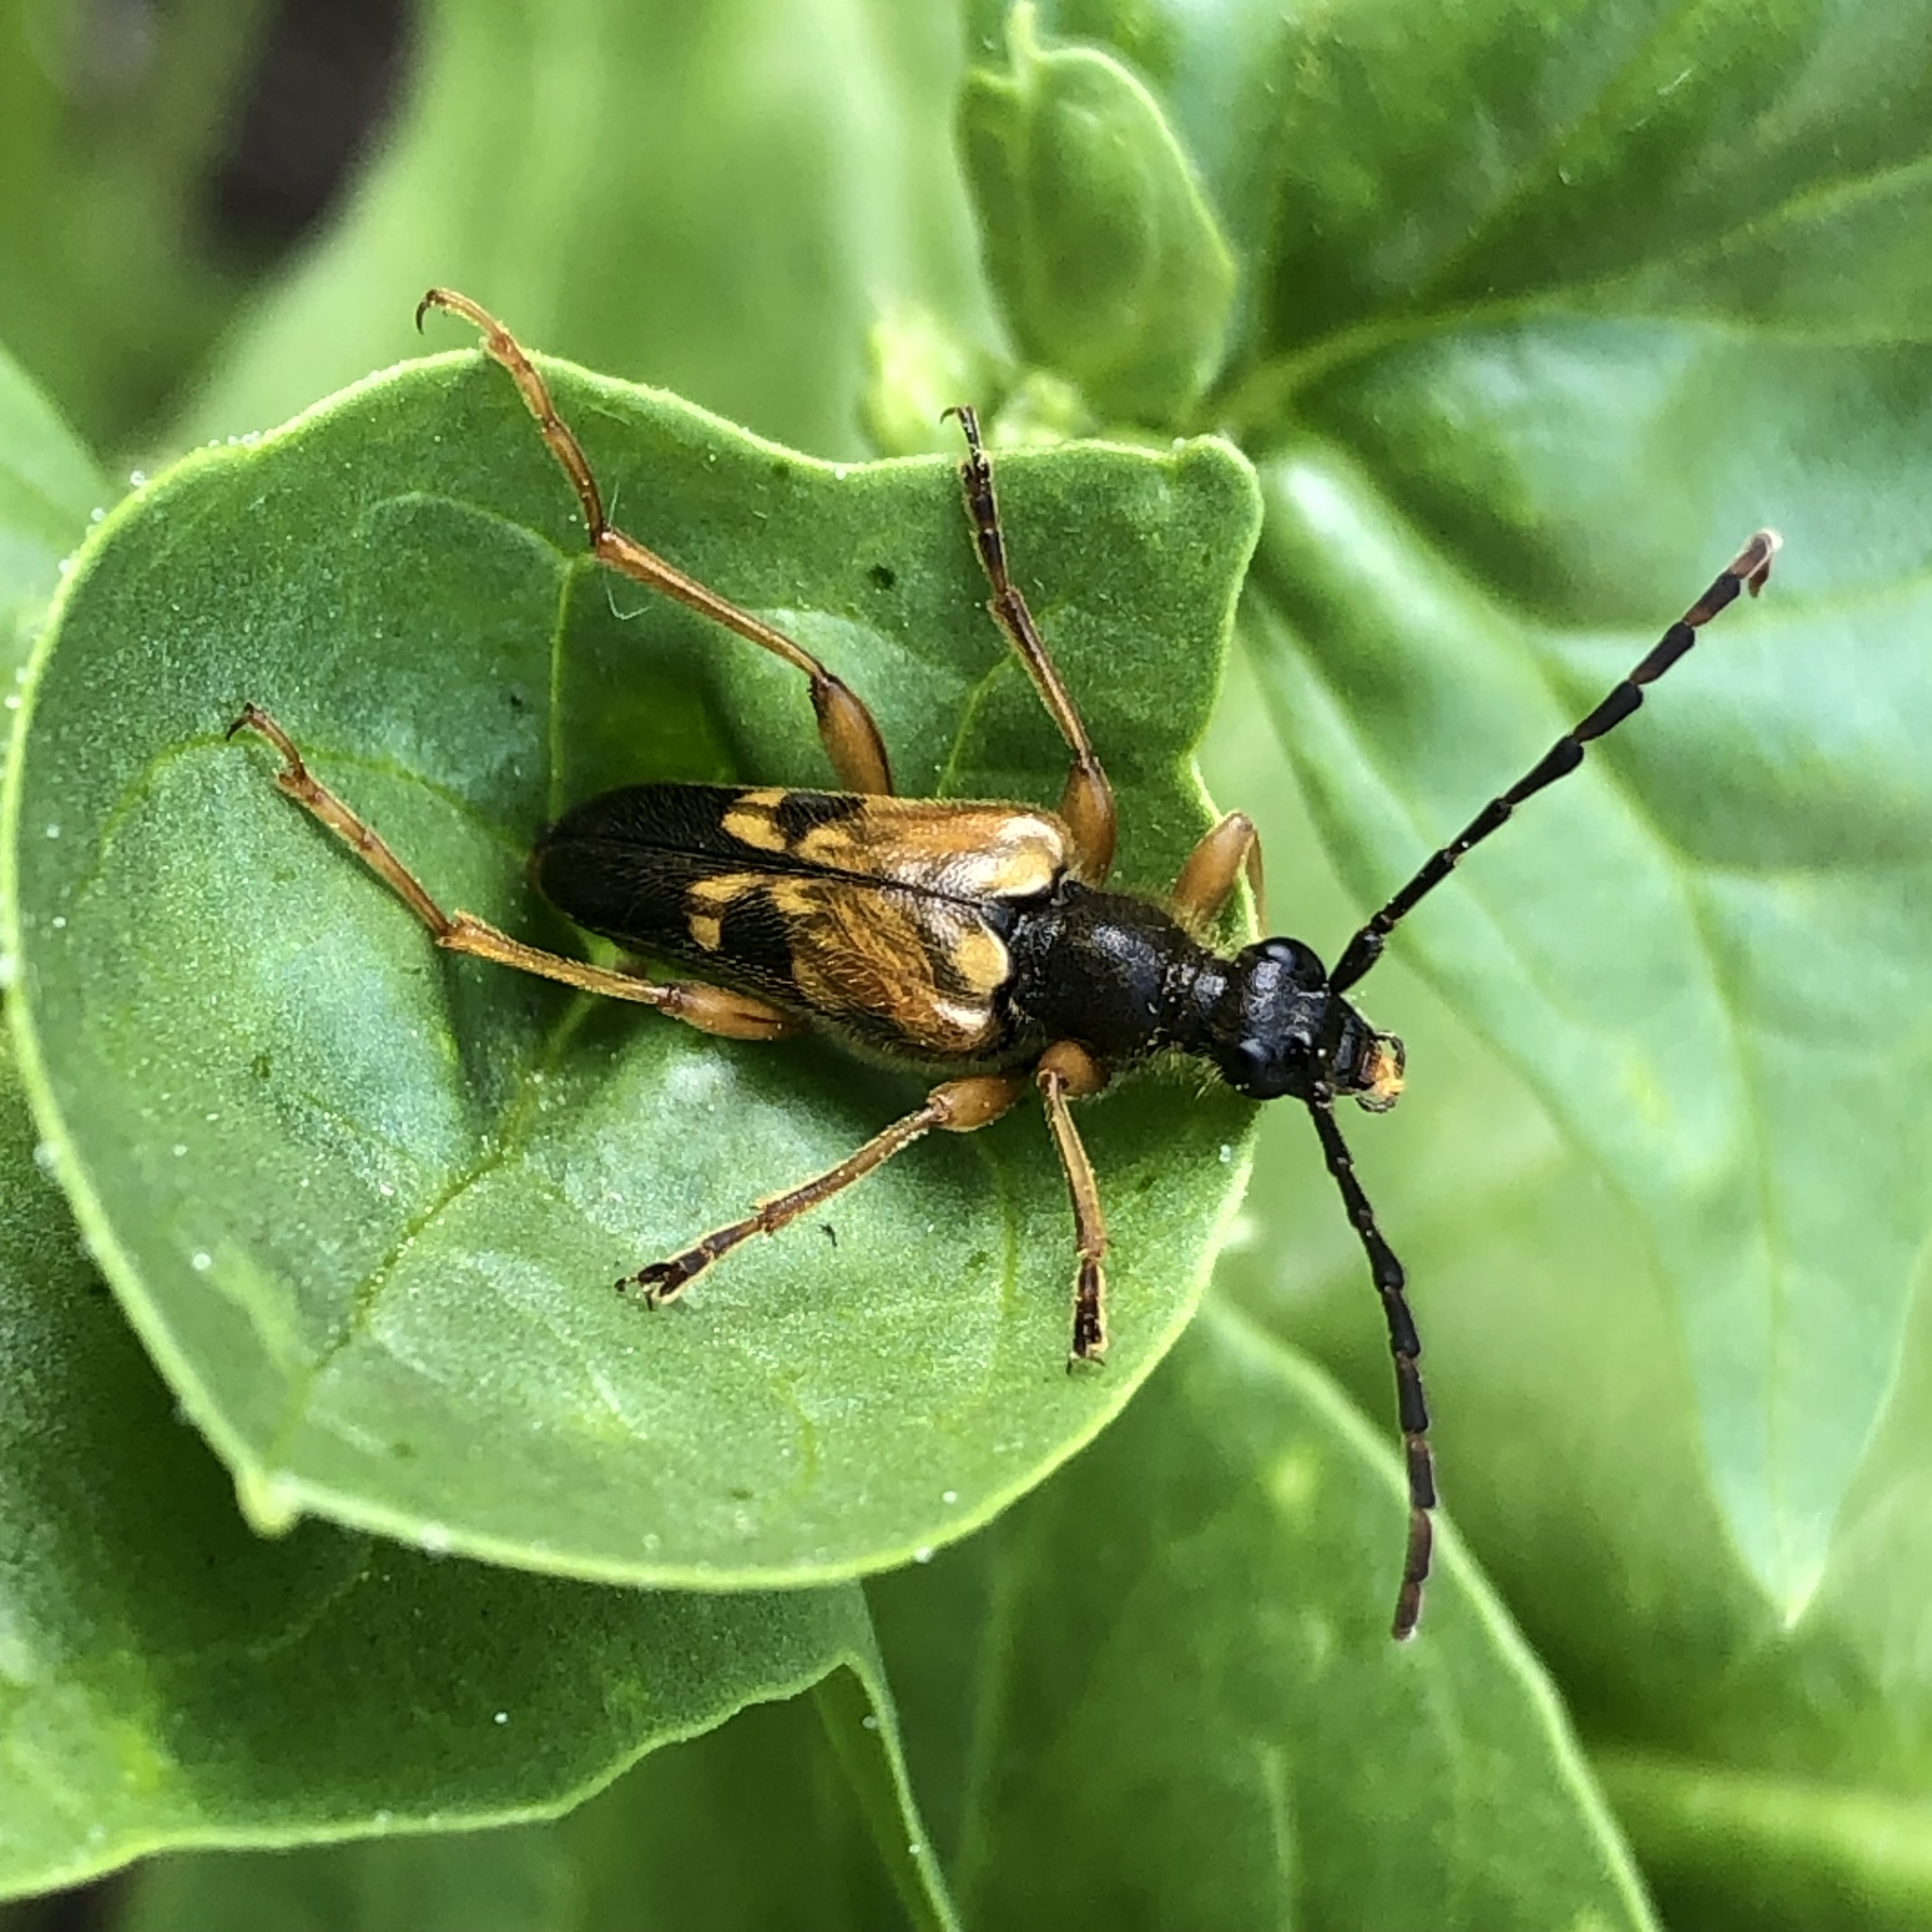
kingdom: Animalia
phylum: Arthropoda
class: Insecta
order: Coleoptera
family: Cerambycidae
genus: Xestoleptura
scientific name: Xestoleptura crassipes
